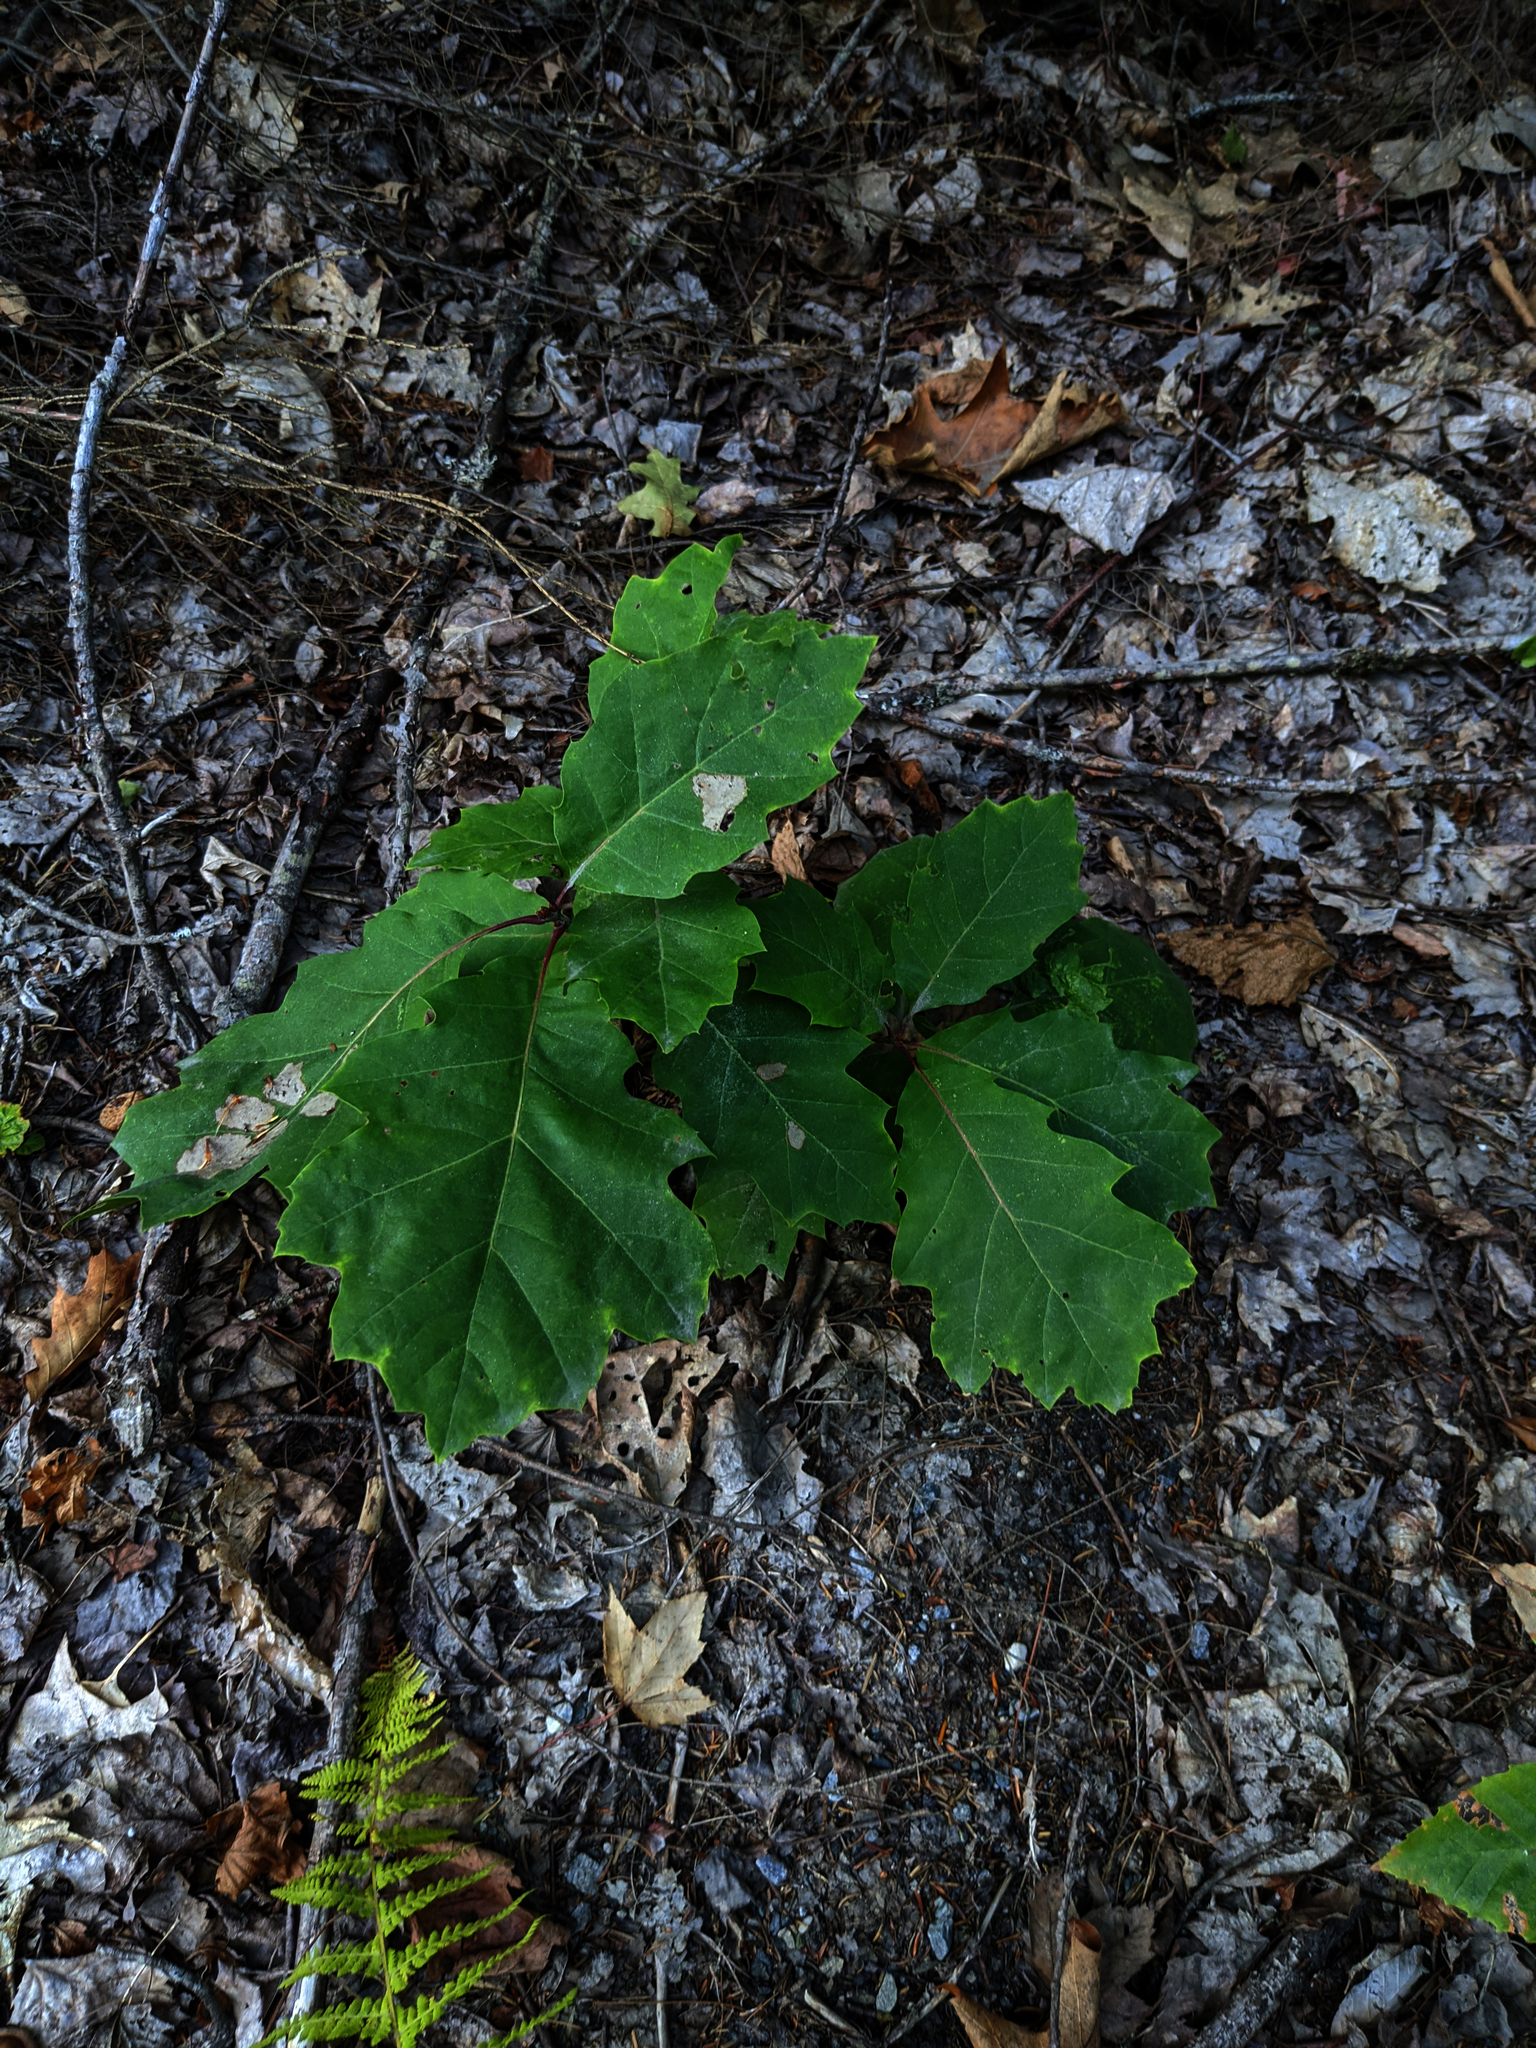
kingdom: Plantae
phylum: Tracheophyta
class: Magnoliopsida
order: Fagales
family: Fagaceae
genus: Quercus
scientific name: Quercus rubra
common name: Red oak
